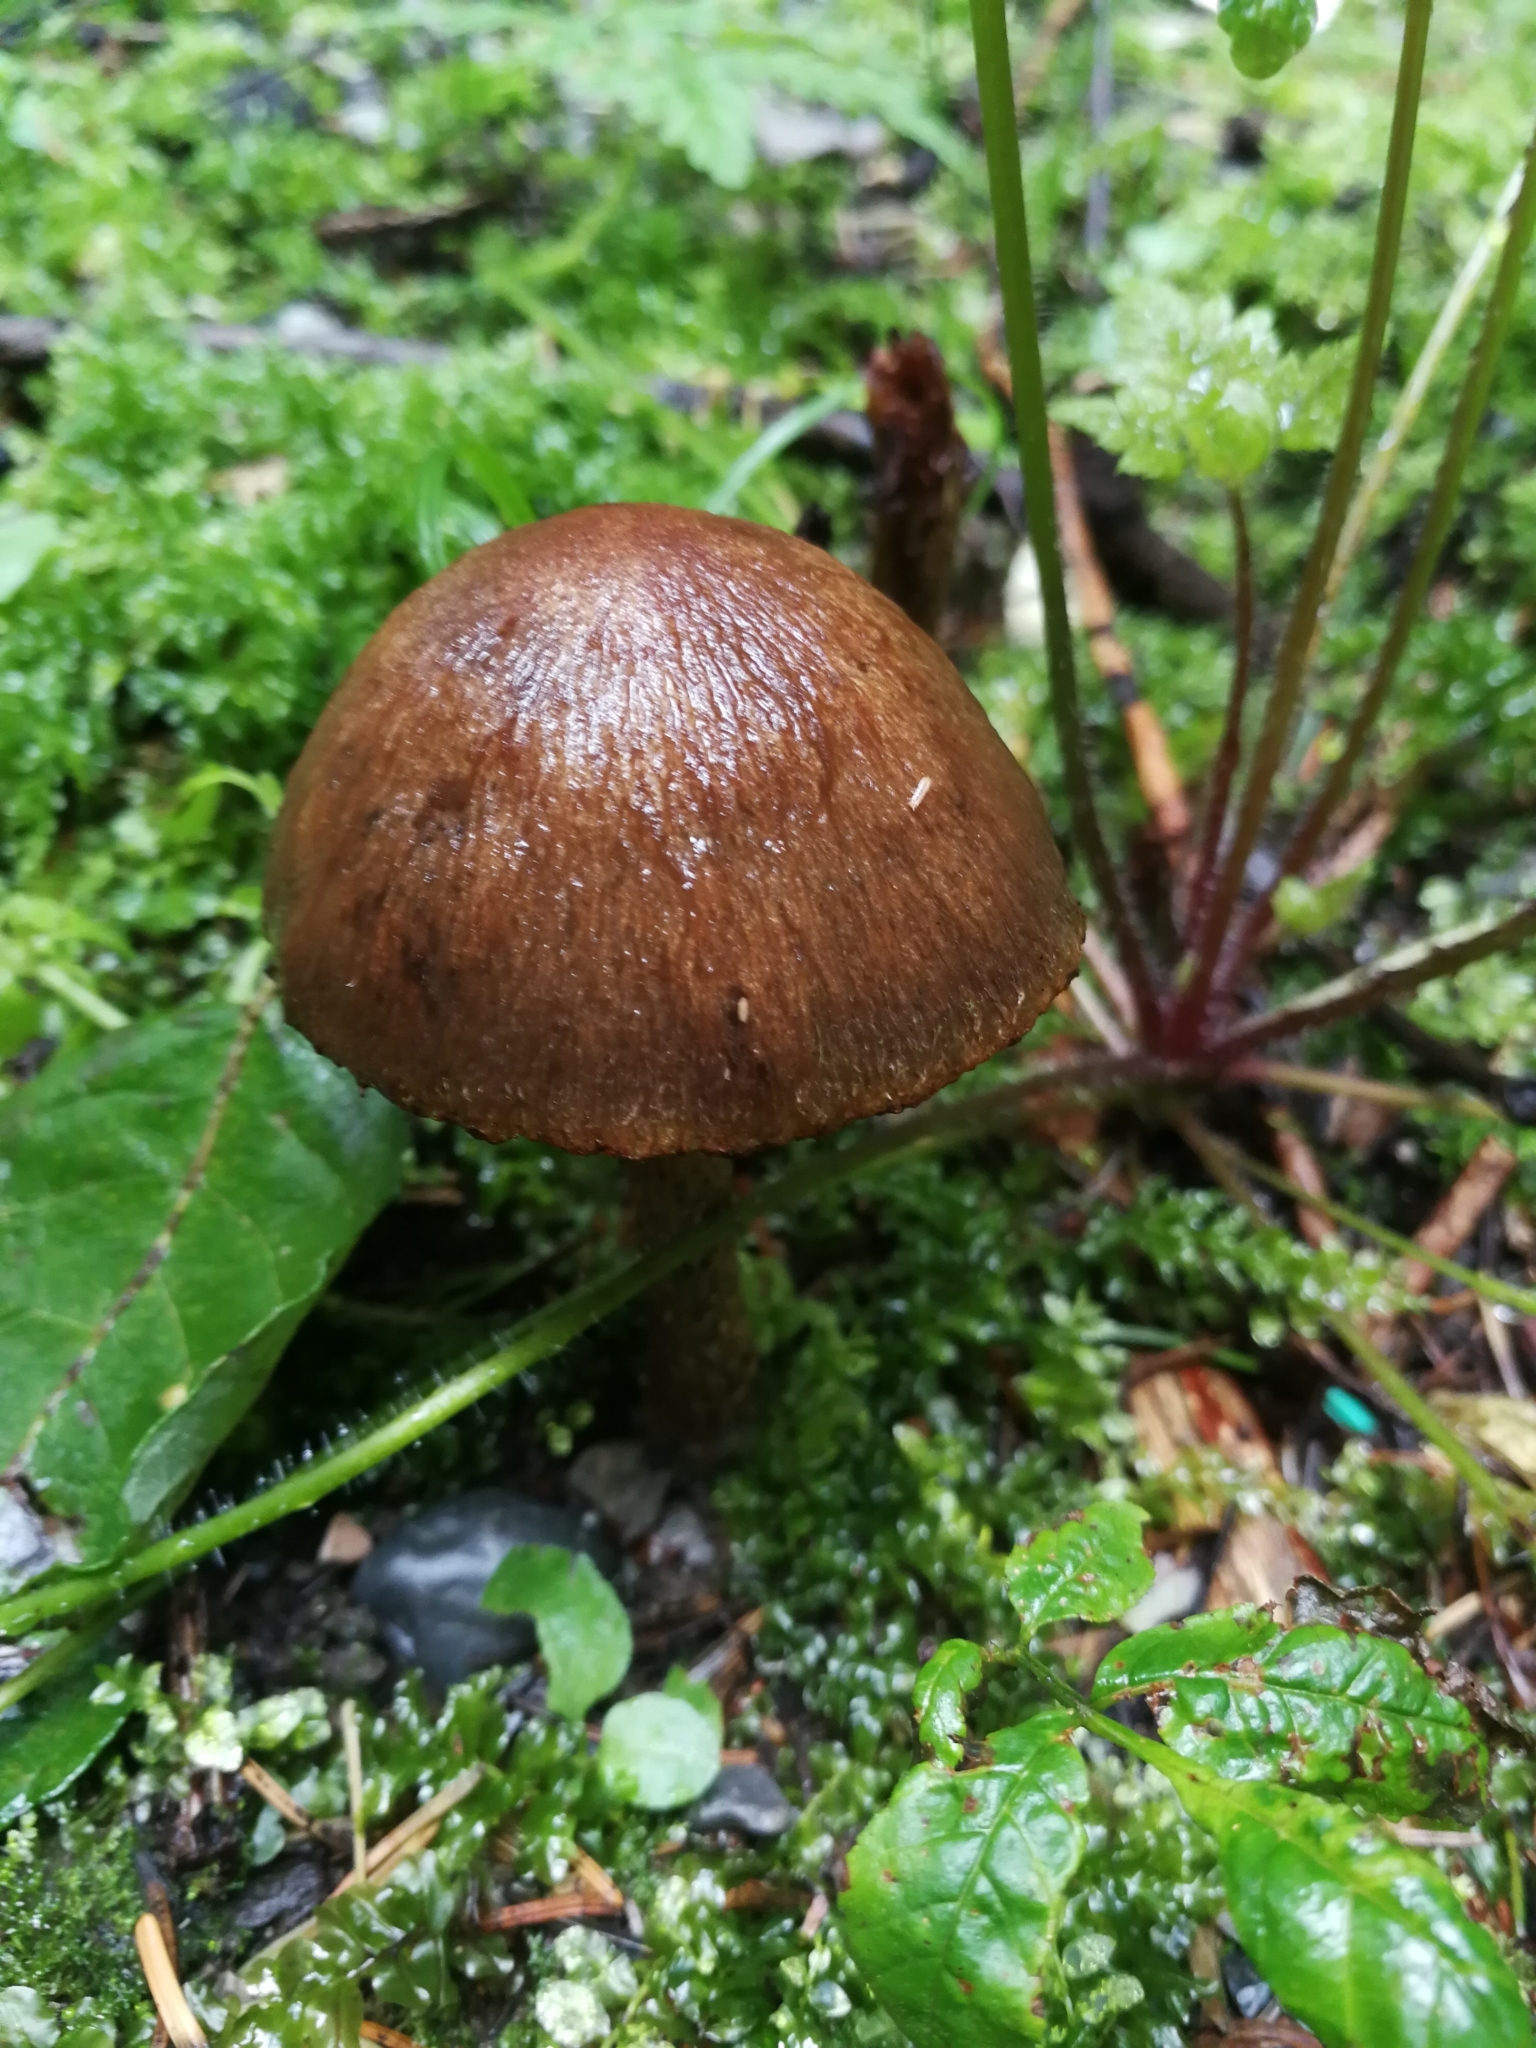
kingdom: Fungi
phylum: Basidiomycota
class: Agaricomycetes
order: Agaricales
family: Psathyrellaceae
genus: Lacrymaria
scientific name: Lacrymaria lacrymabunda
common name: Weeping widow
